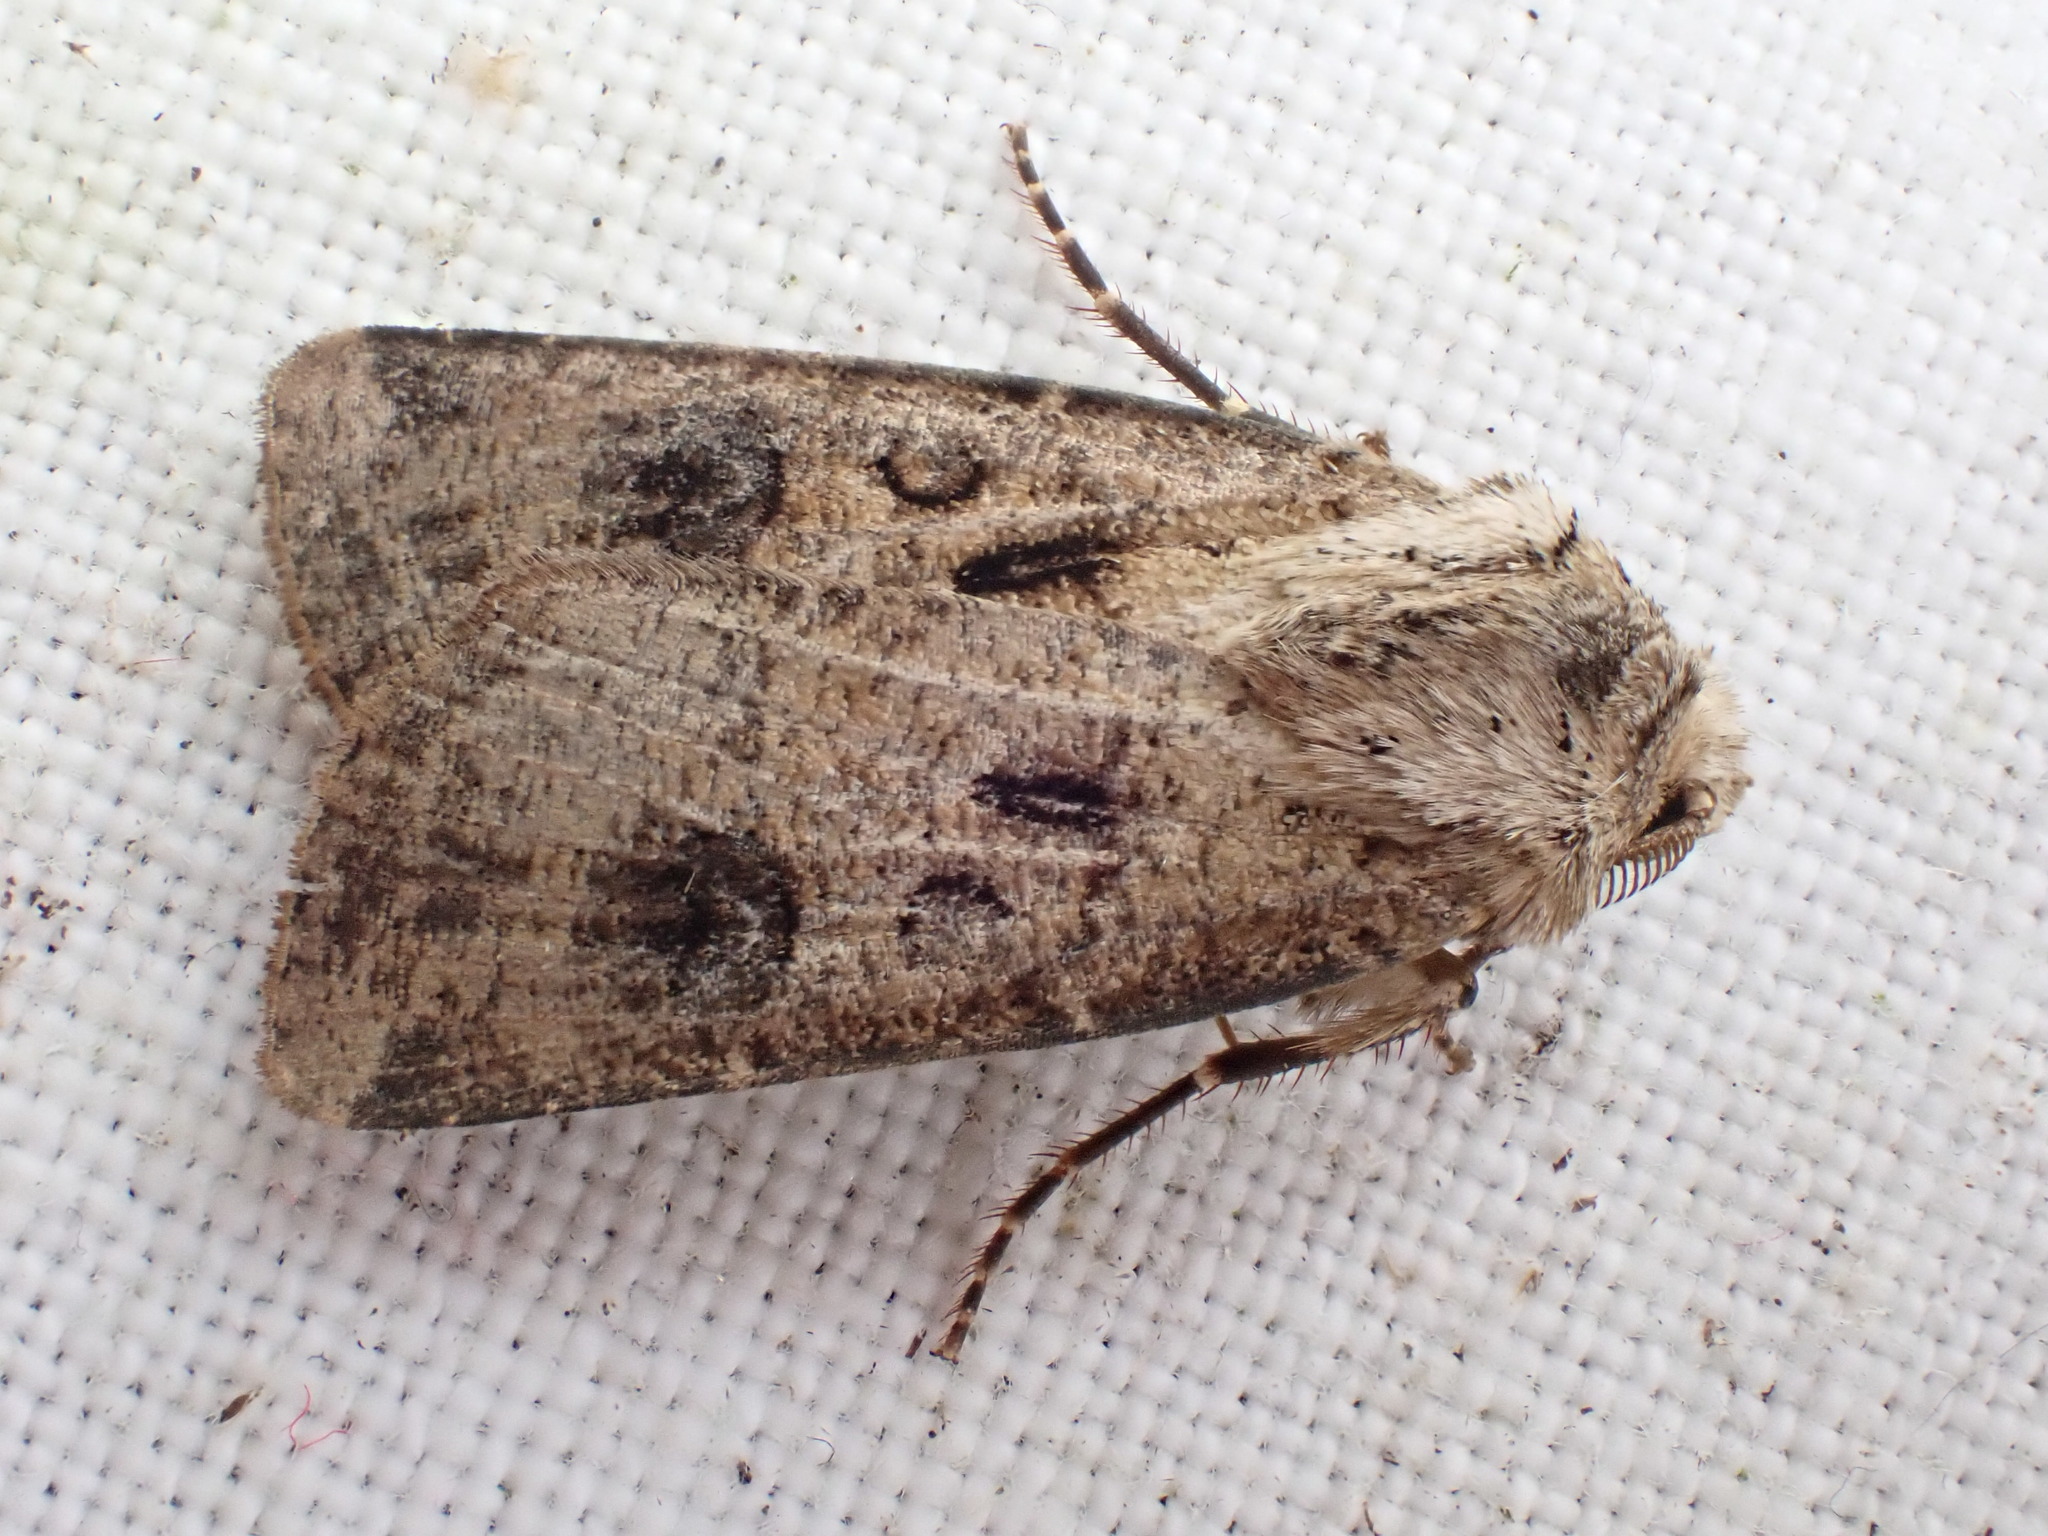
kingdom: Animalia
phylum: Arthropoda
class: Insecta
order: Lepidoptera
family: Noctuidae
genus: Agrotis
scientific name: Agrotis clavis
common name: Heart and club
